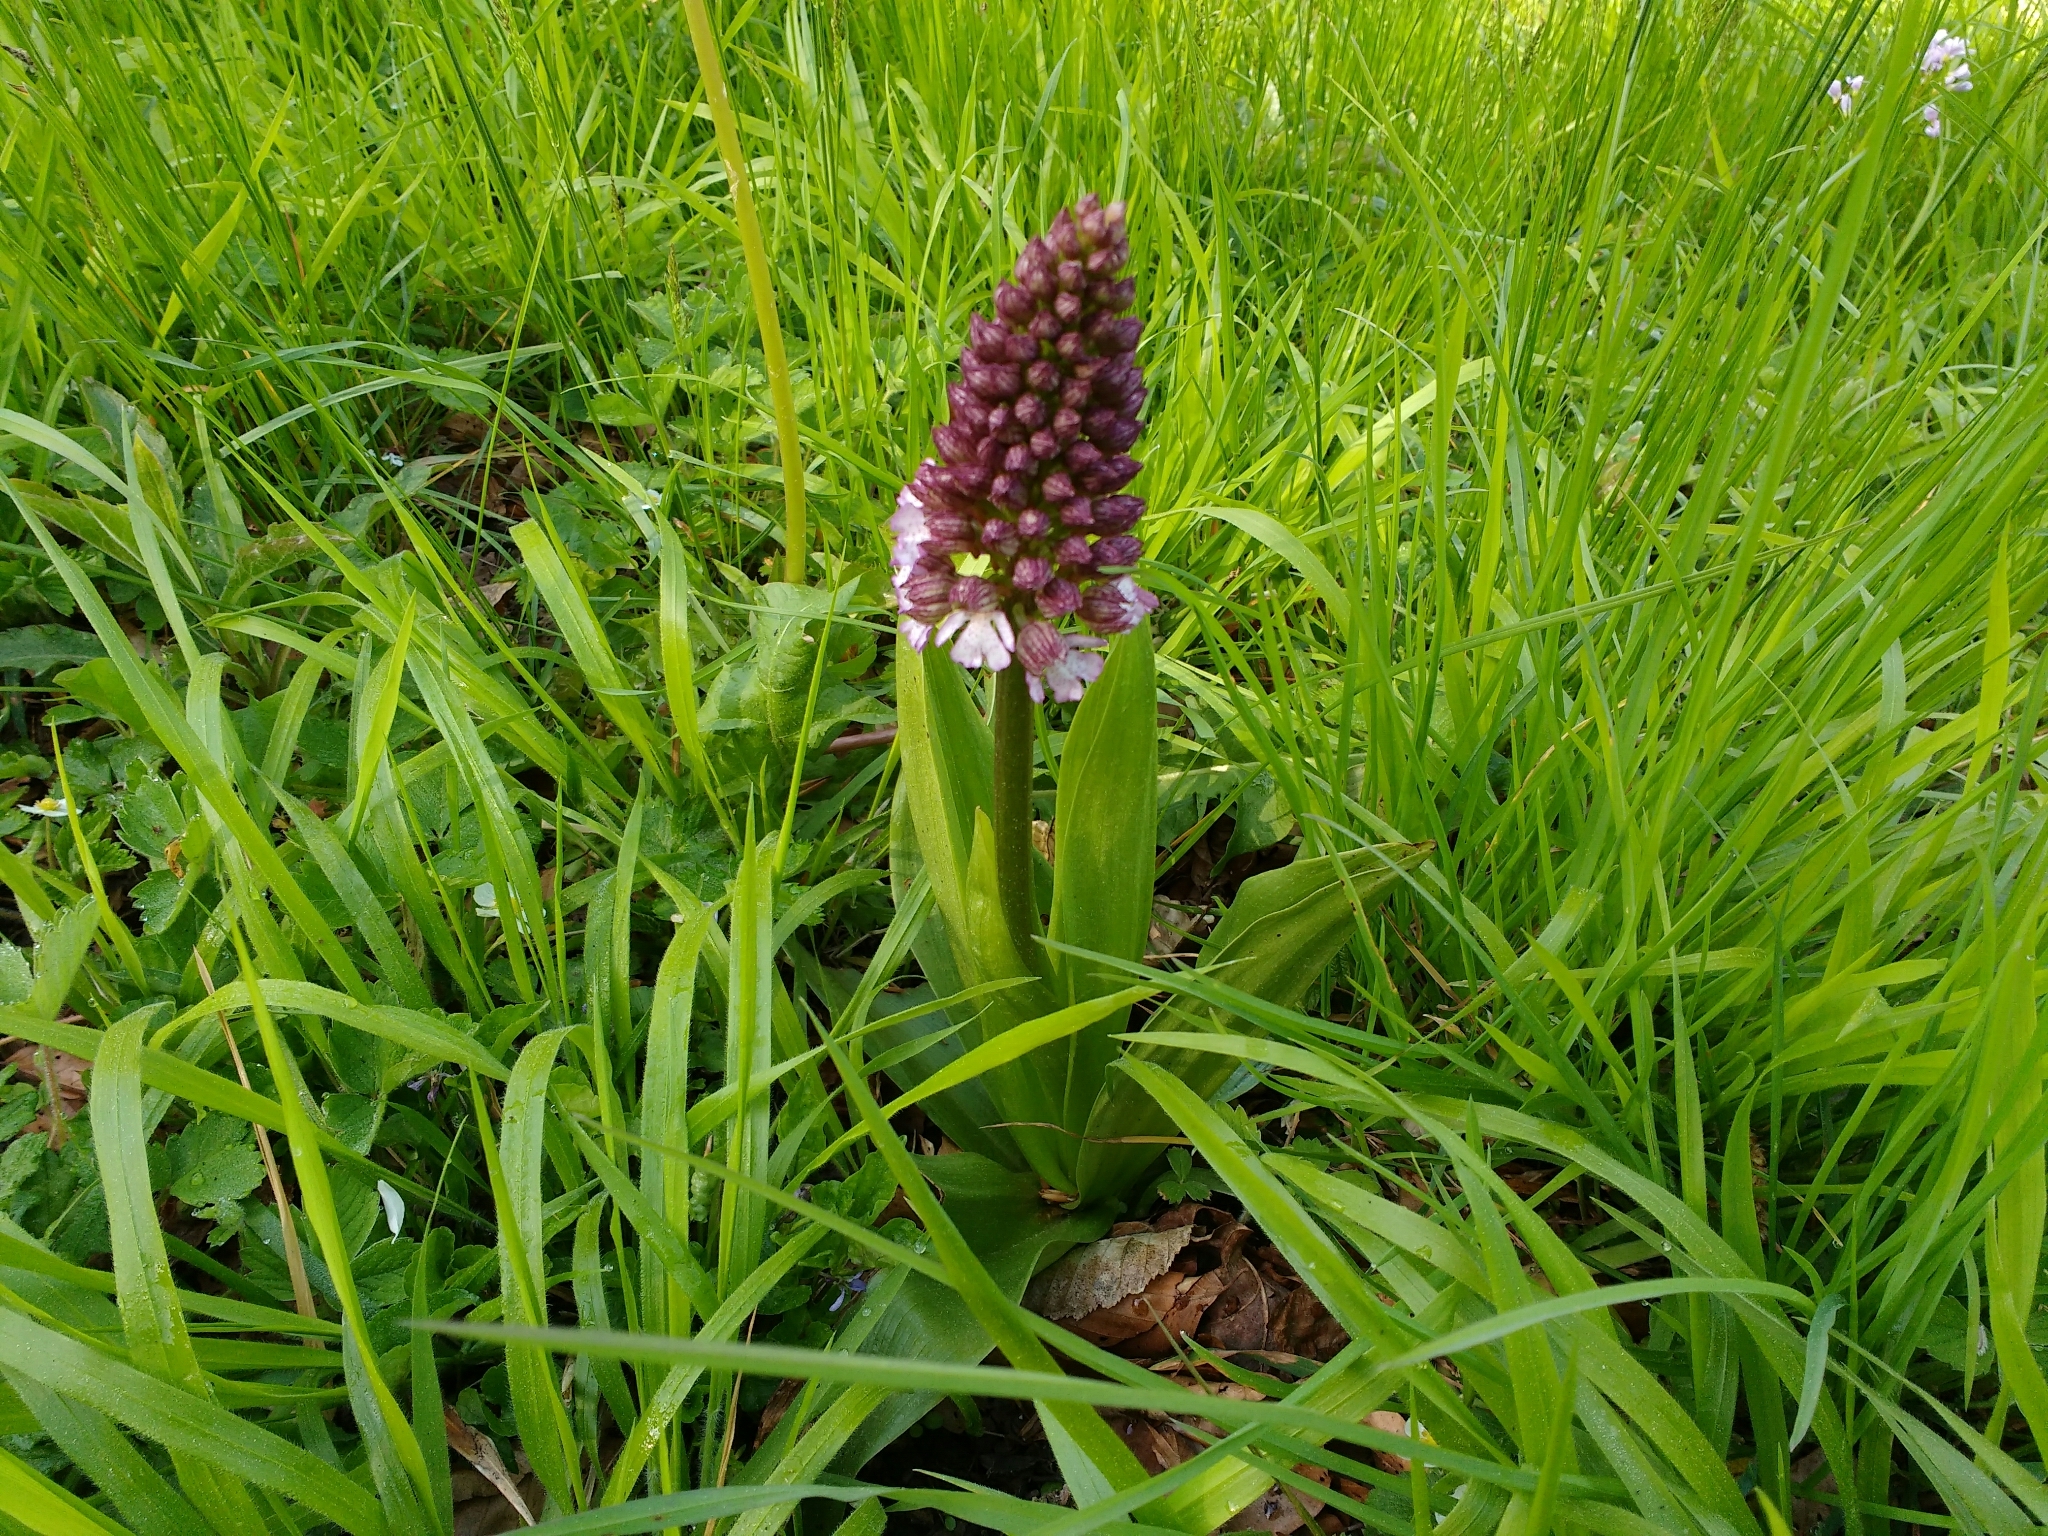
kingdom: Plantae
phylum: Tracheophyta
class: Liliopsida
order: Asparagales
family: Orchidaceae
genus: Orchis
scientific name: Orchis purpurea
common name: Lady orchid
